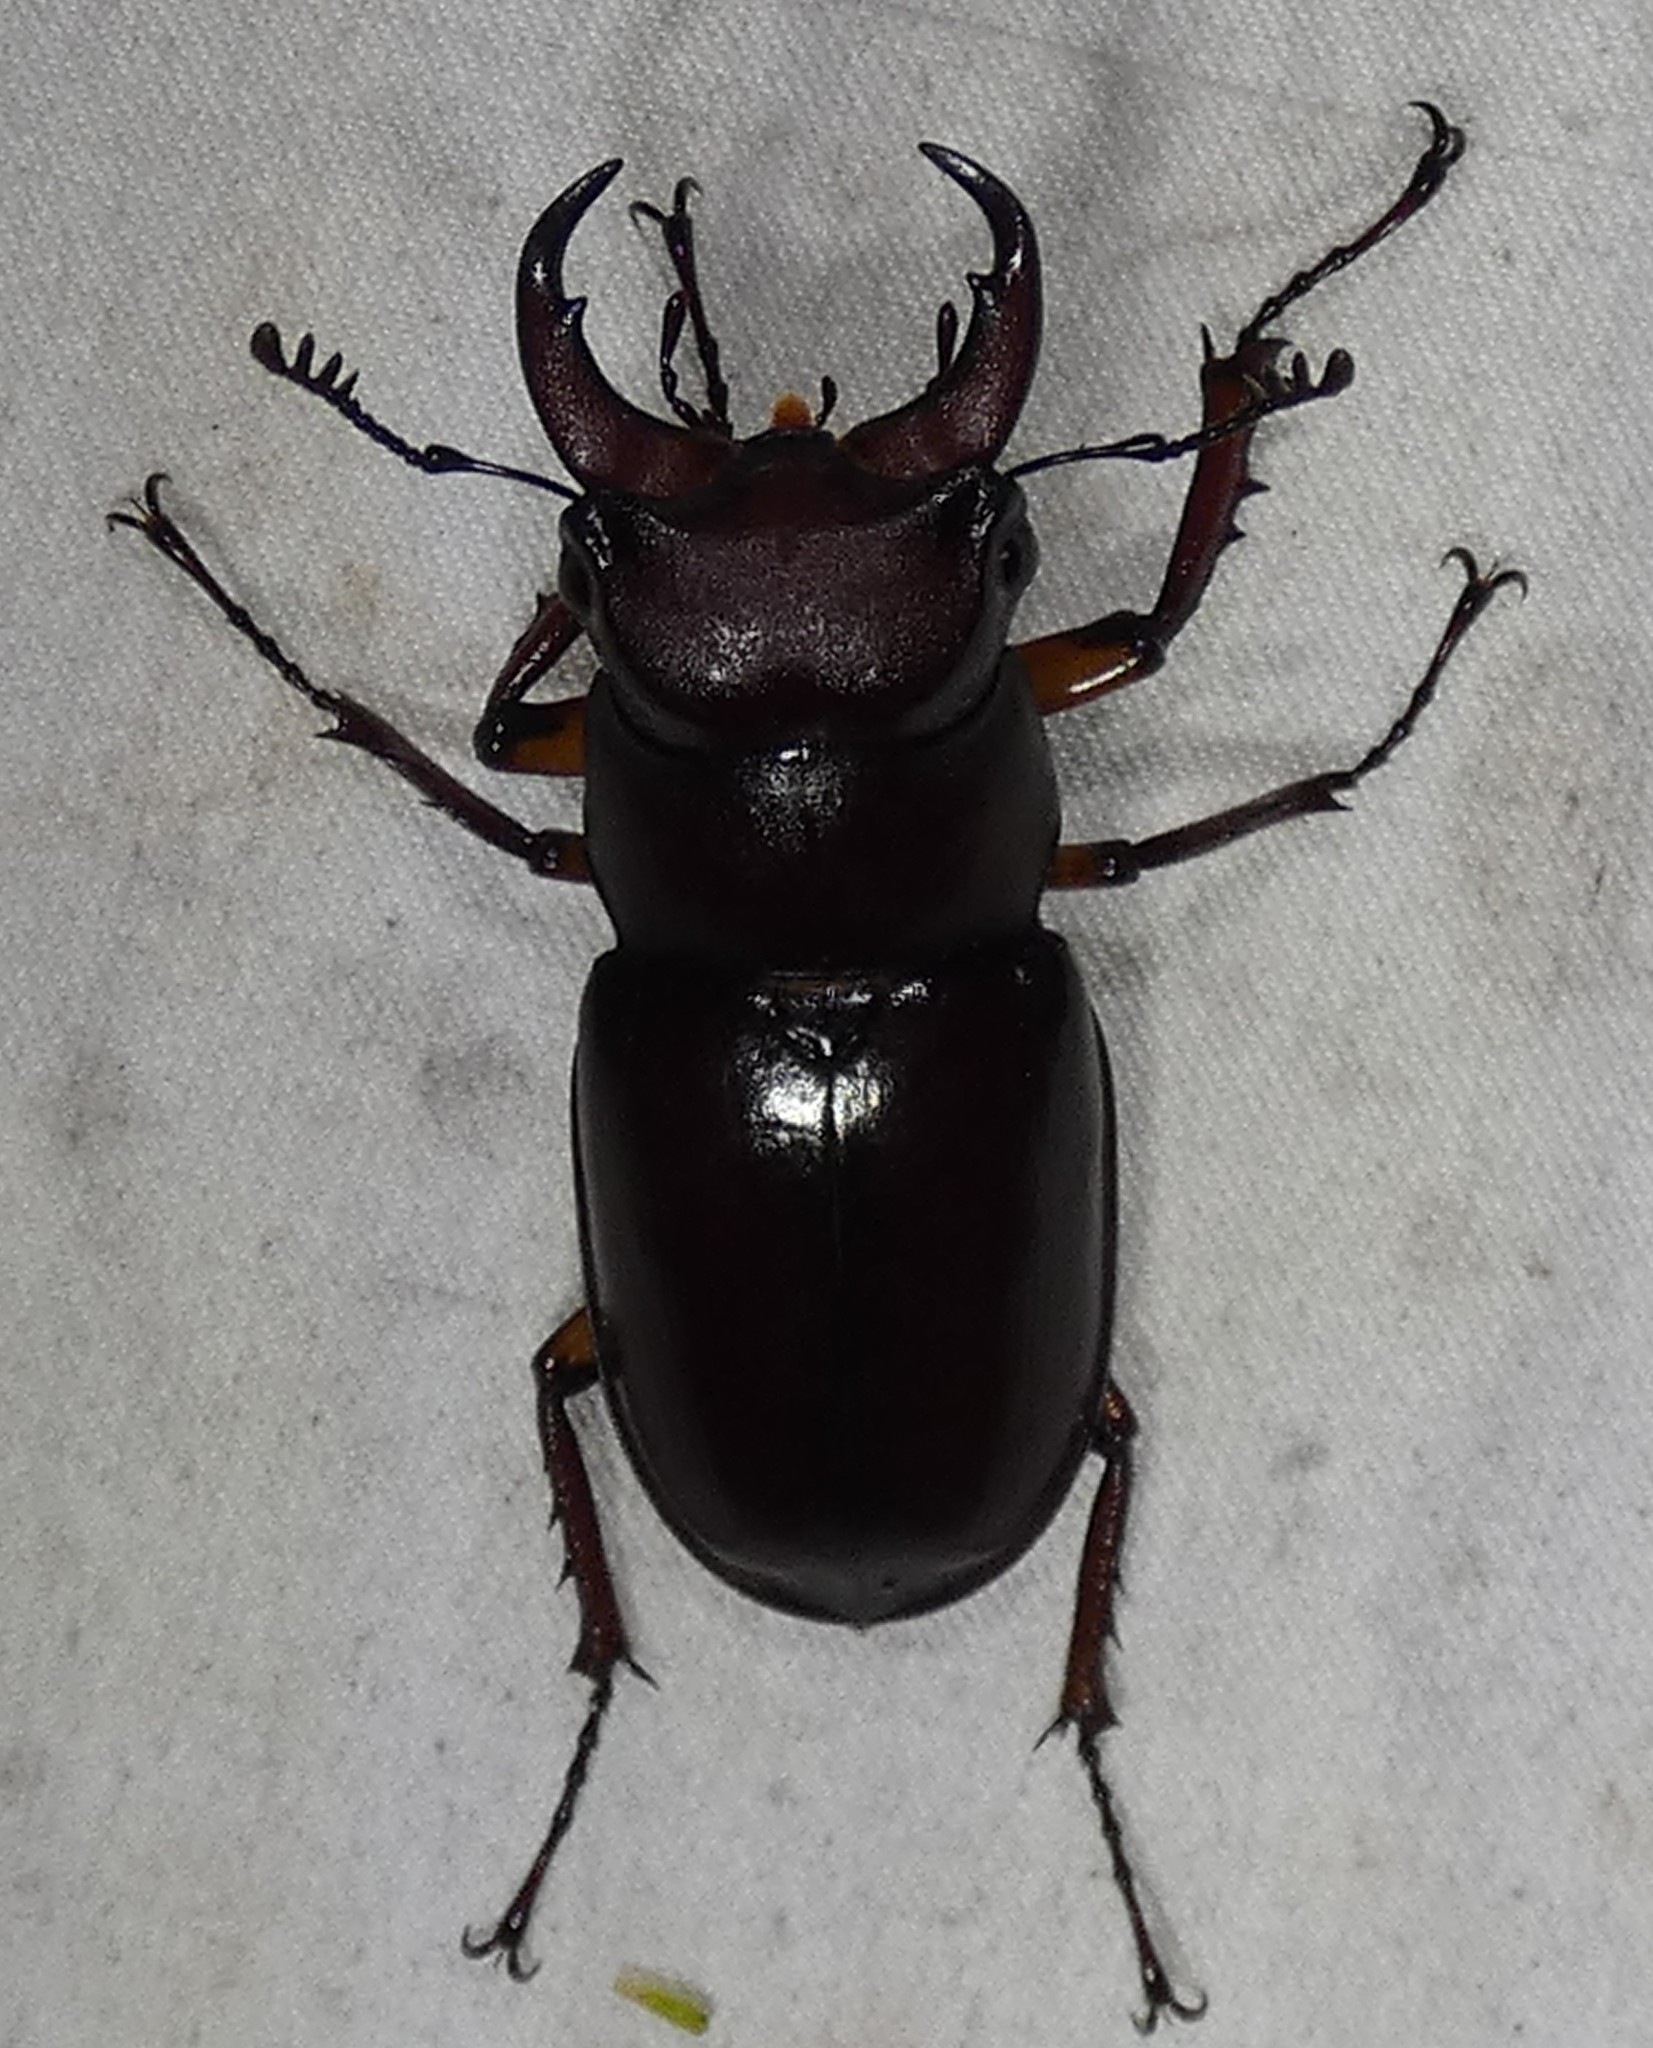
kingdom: Animalia
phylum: Arthropoda
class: Insecta
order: Coleoptera
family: Lucanidae
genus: Lucanus
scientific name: Lucanus capreolus
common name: Stag beetle
